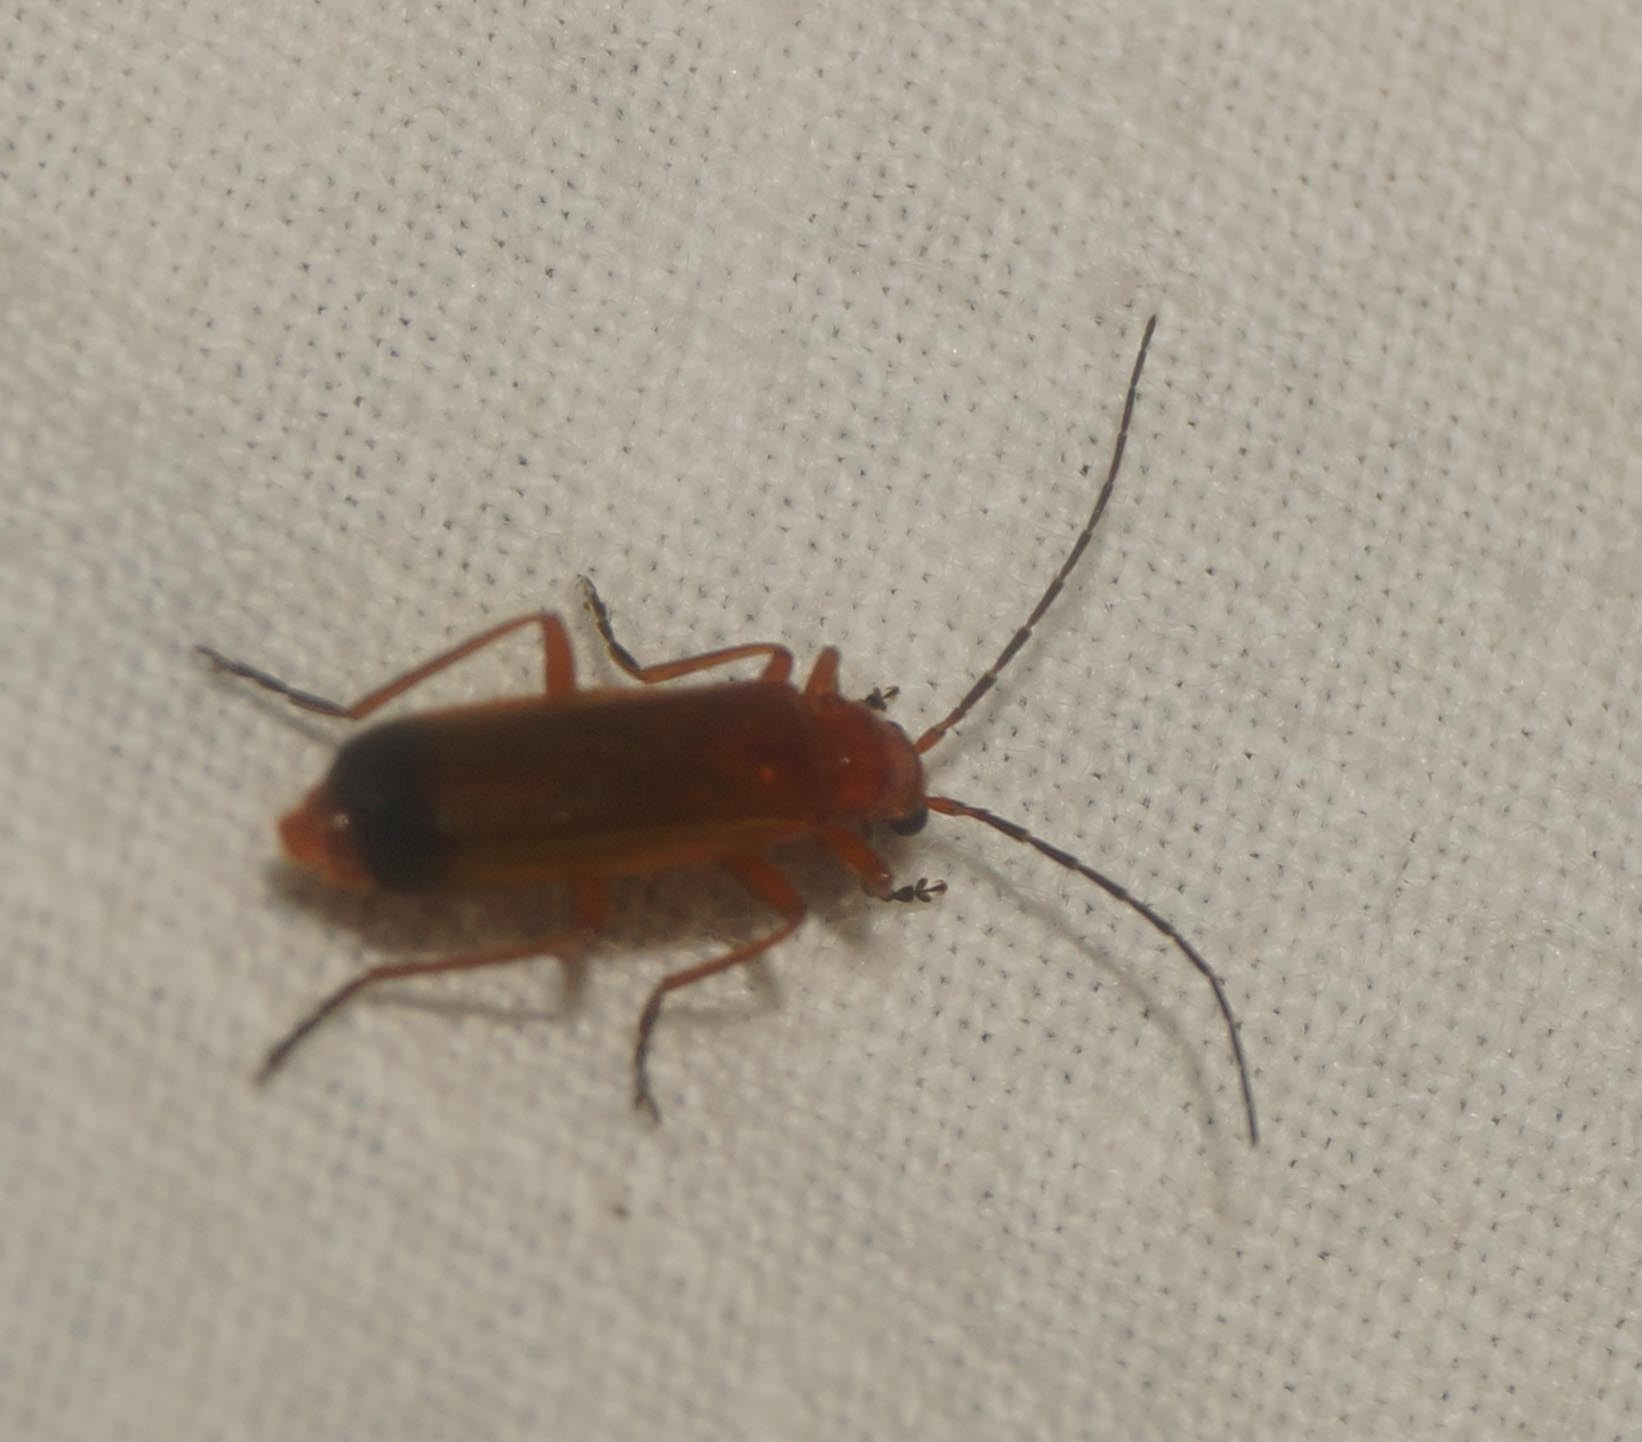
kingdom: Animalia
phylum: Arthropoda
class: Insecta
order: Coleoptera
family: Cantharidae
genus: Rhagonycha
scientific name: Rhagonycha fulva
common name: Common red soldier beetle
